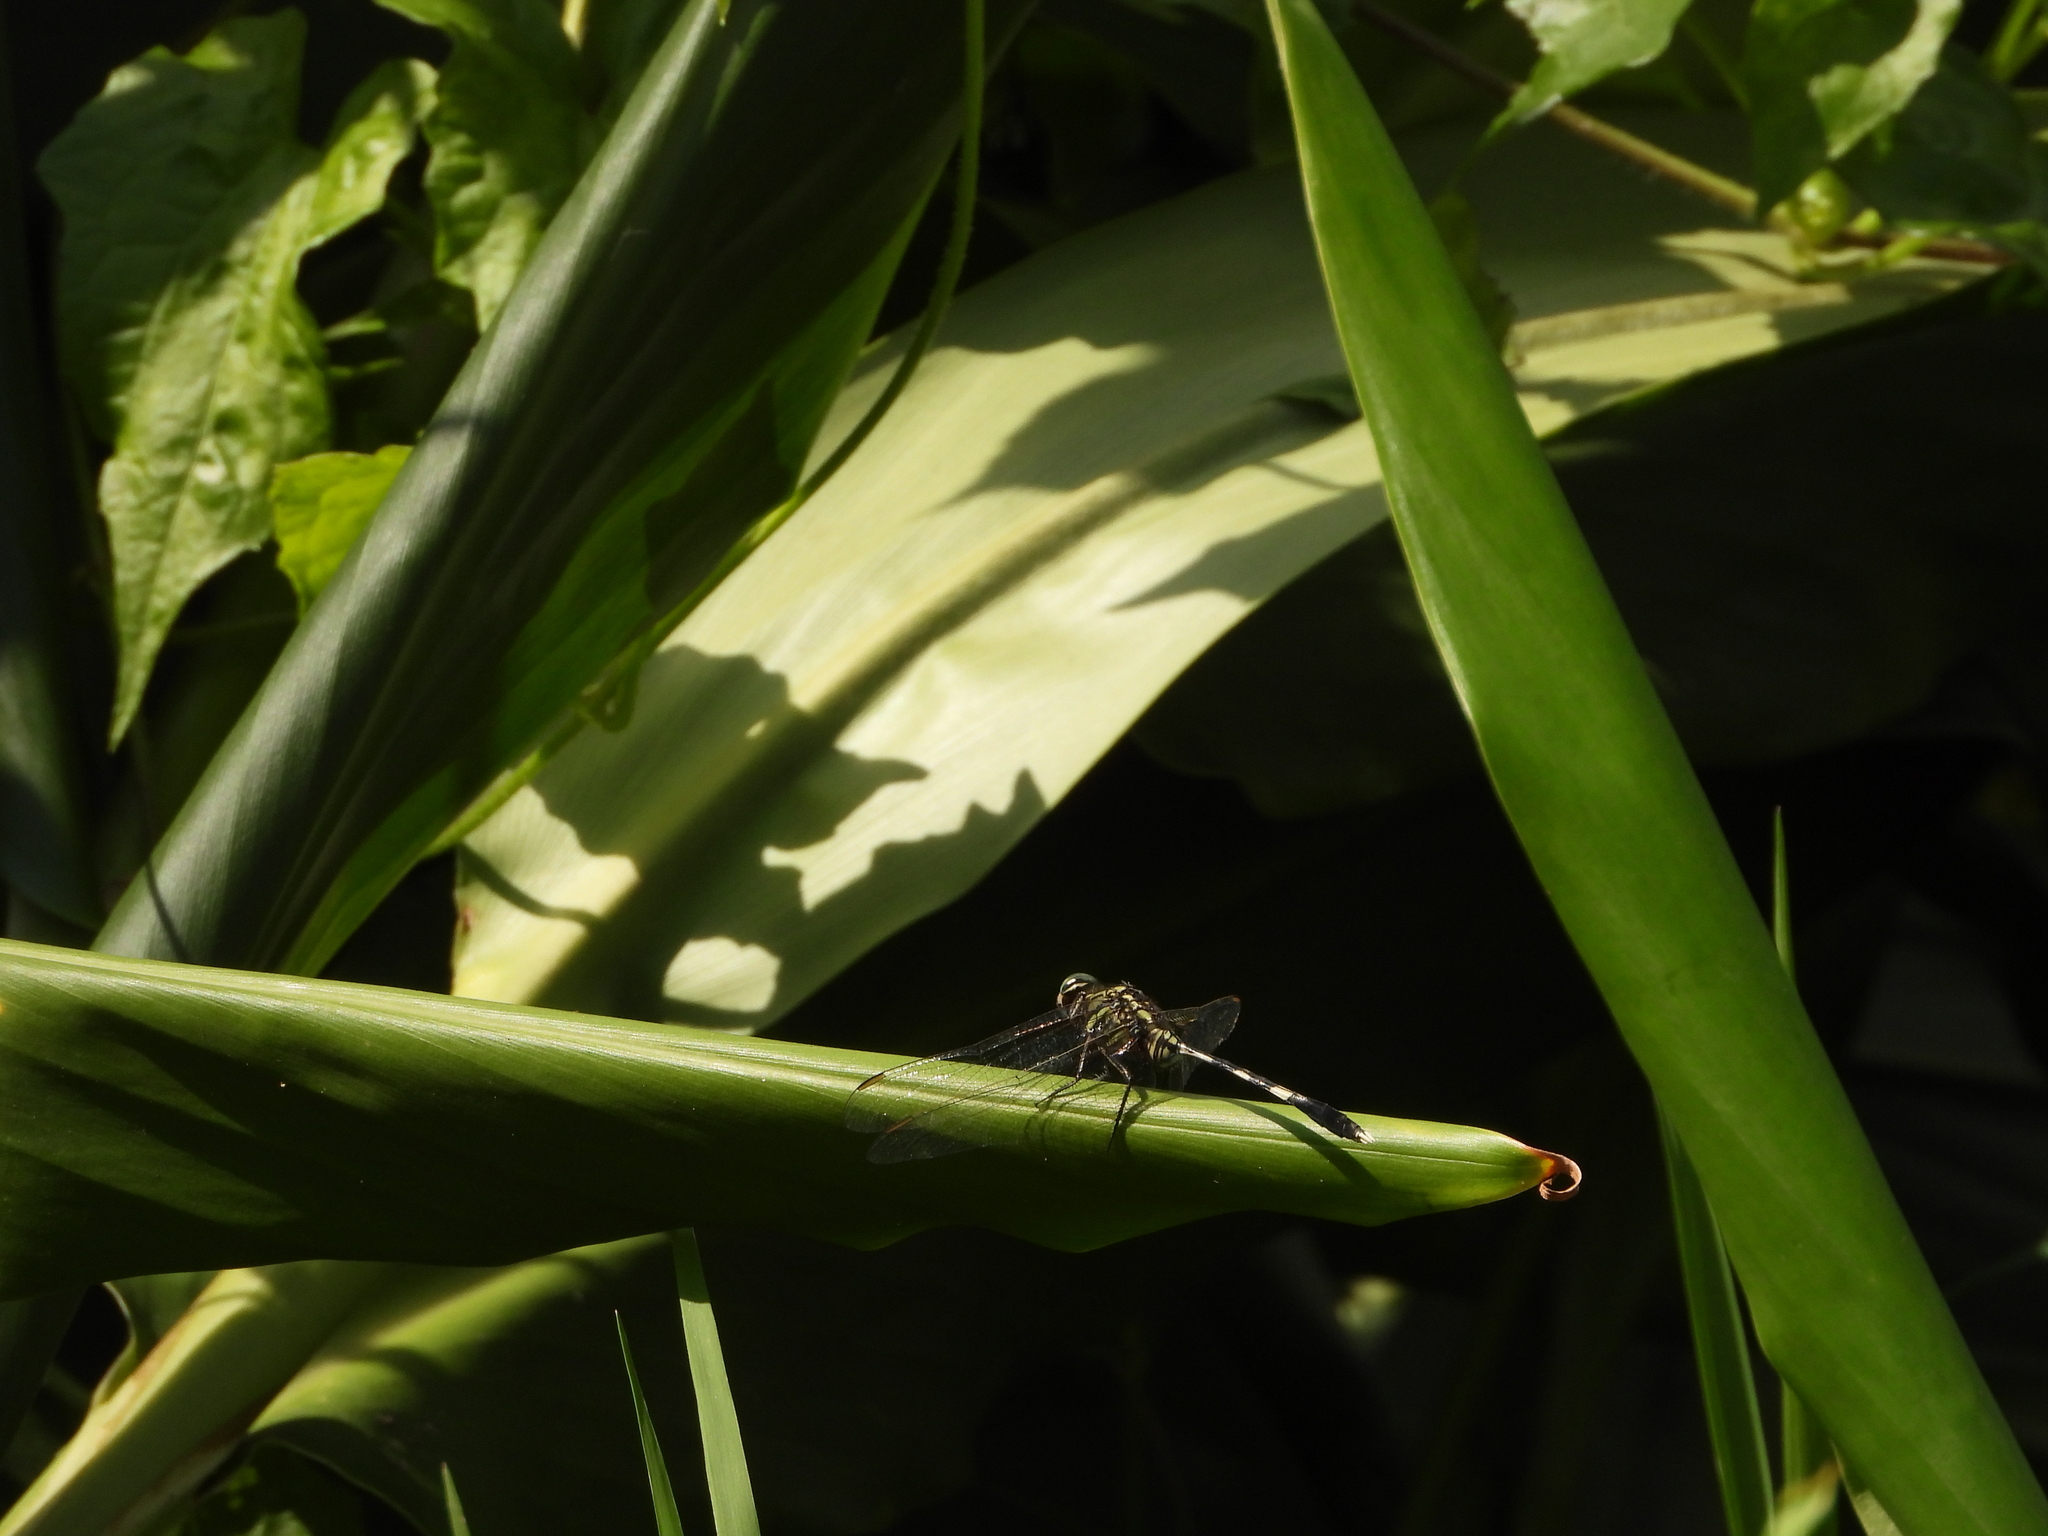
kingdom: Animalia
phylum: Arthropoda
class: Insecta
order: Odonata
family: Libellulidae
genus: Orthetrum
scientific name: Orthetrum sabina
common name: Slender skimmer
